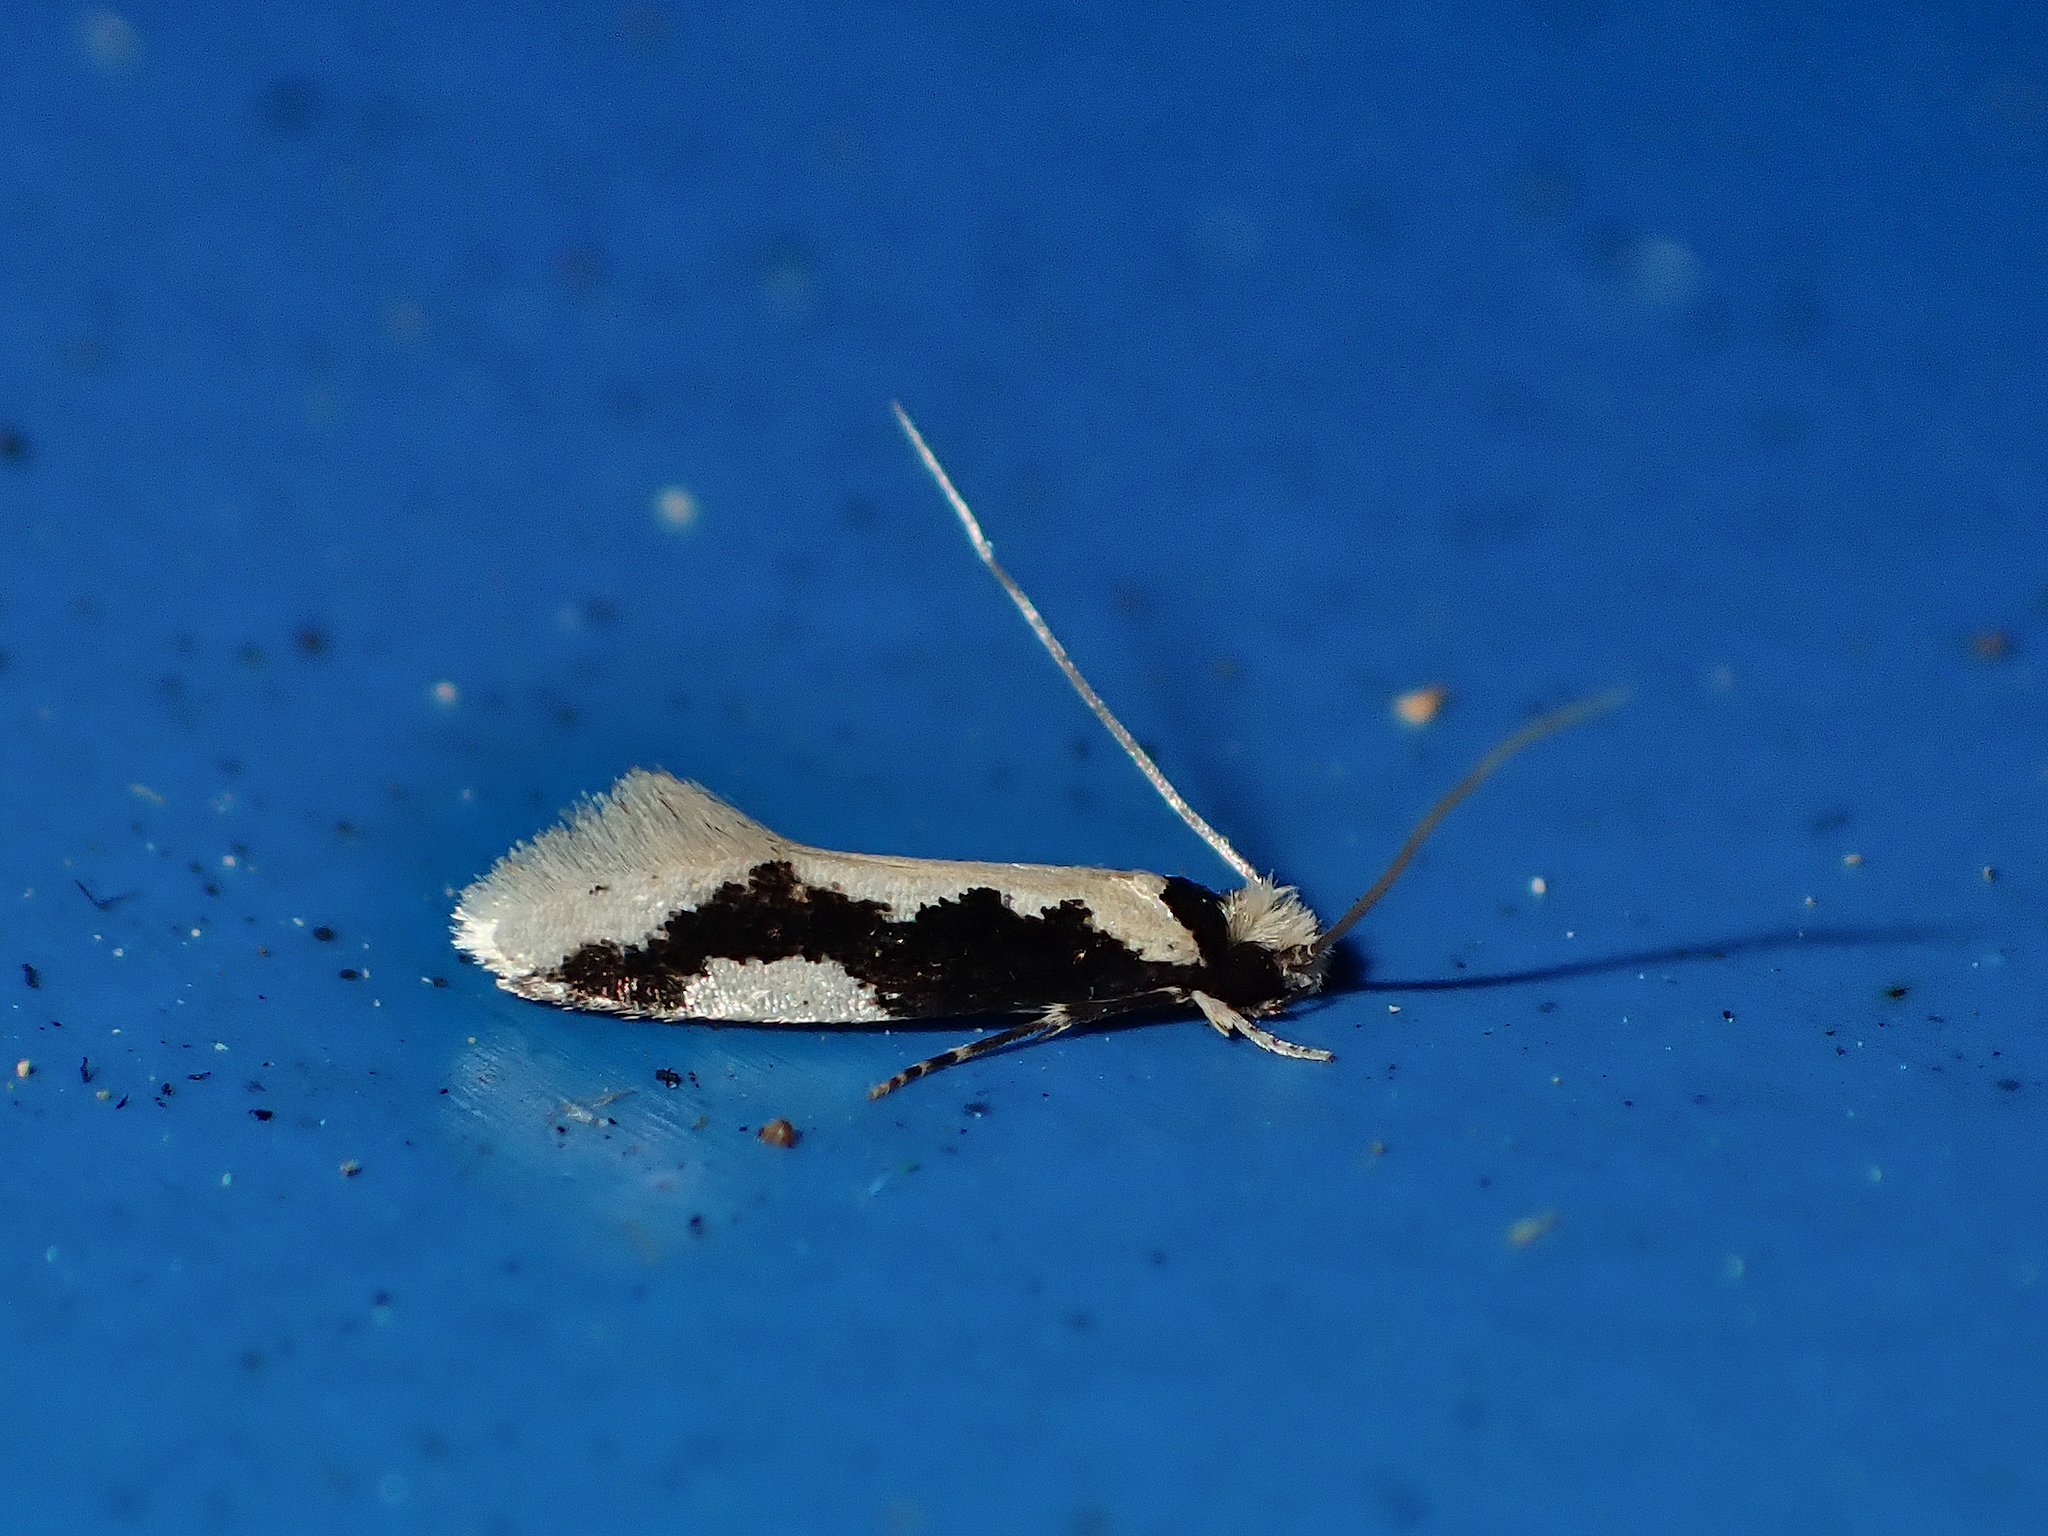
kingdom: Animalia
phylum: Arthropoda
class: Insecta
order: Lepidoptera
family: Tineidae
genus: Thallostoma
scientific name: Thallostoma eurygrapha
